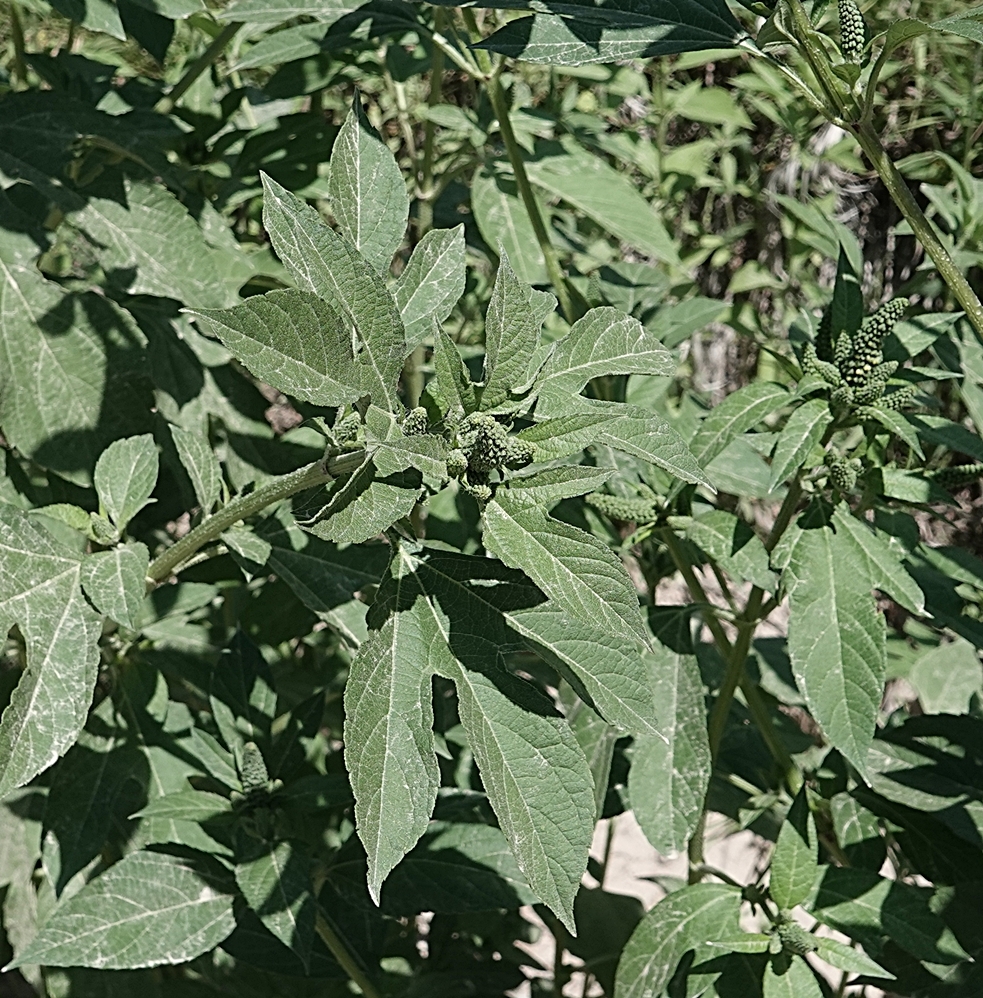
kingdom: Plantae
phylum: Tracheophyta
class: Magnoliopsida
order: Asterales
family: Asteraceae
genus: Ambrosia
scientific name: Ambrosia trifida
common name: Giant ragweed
